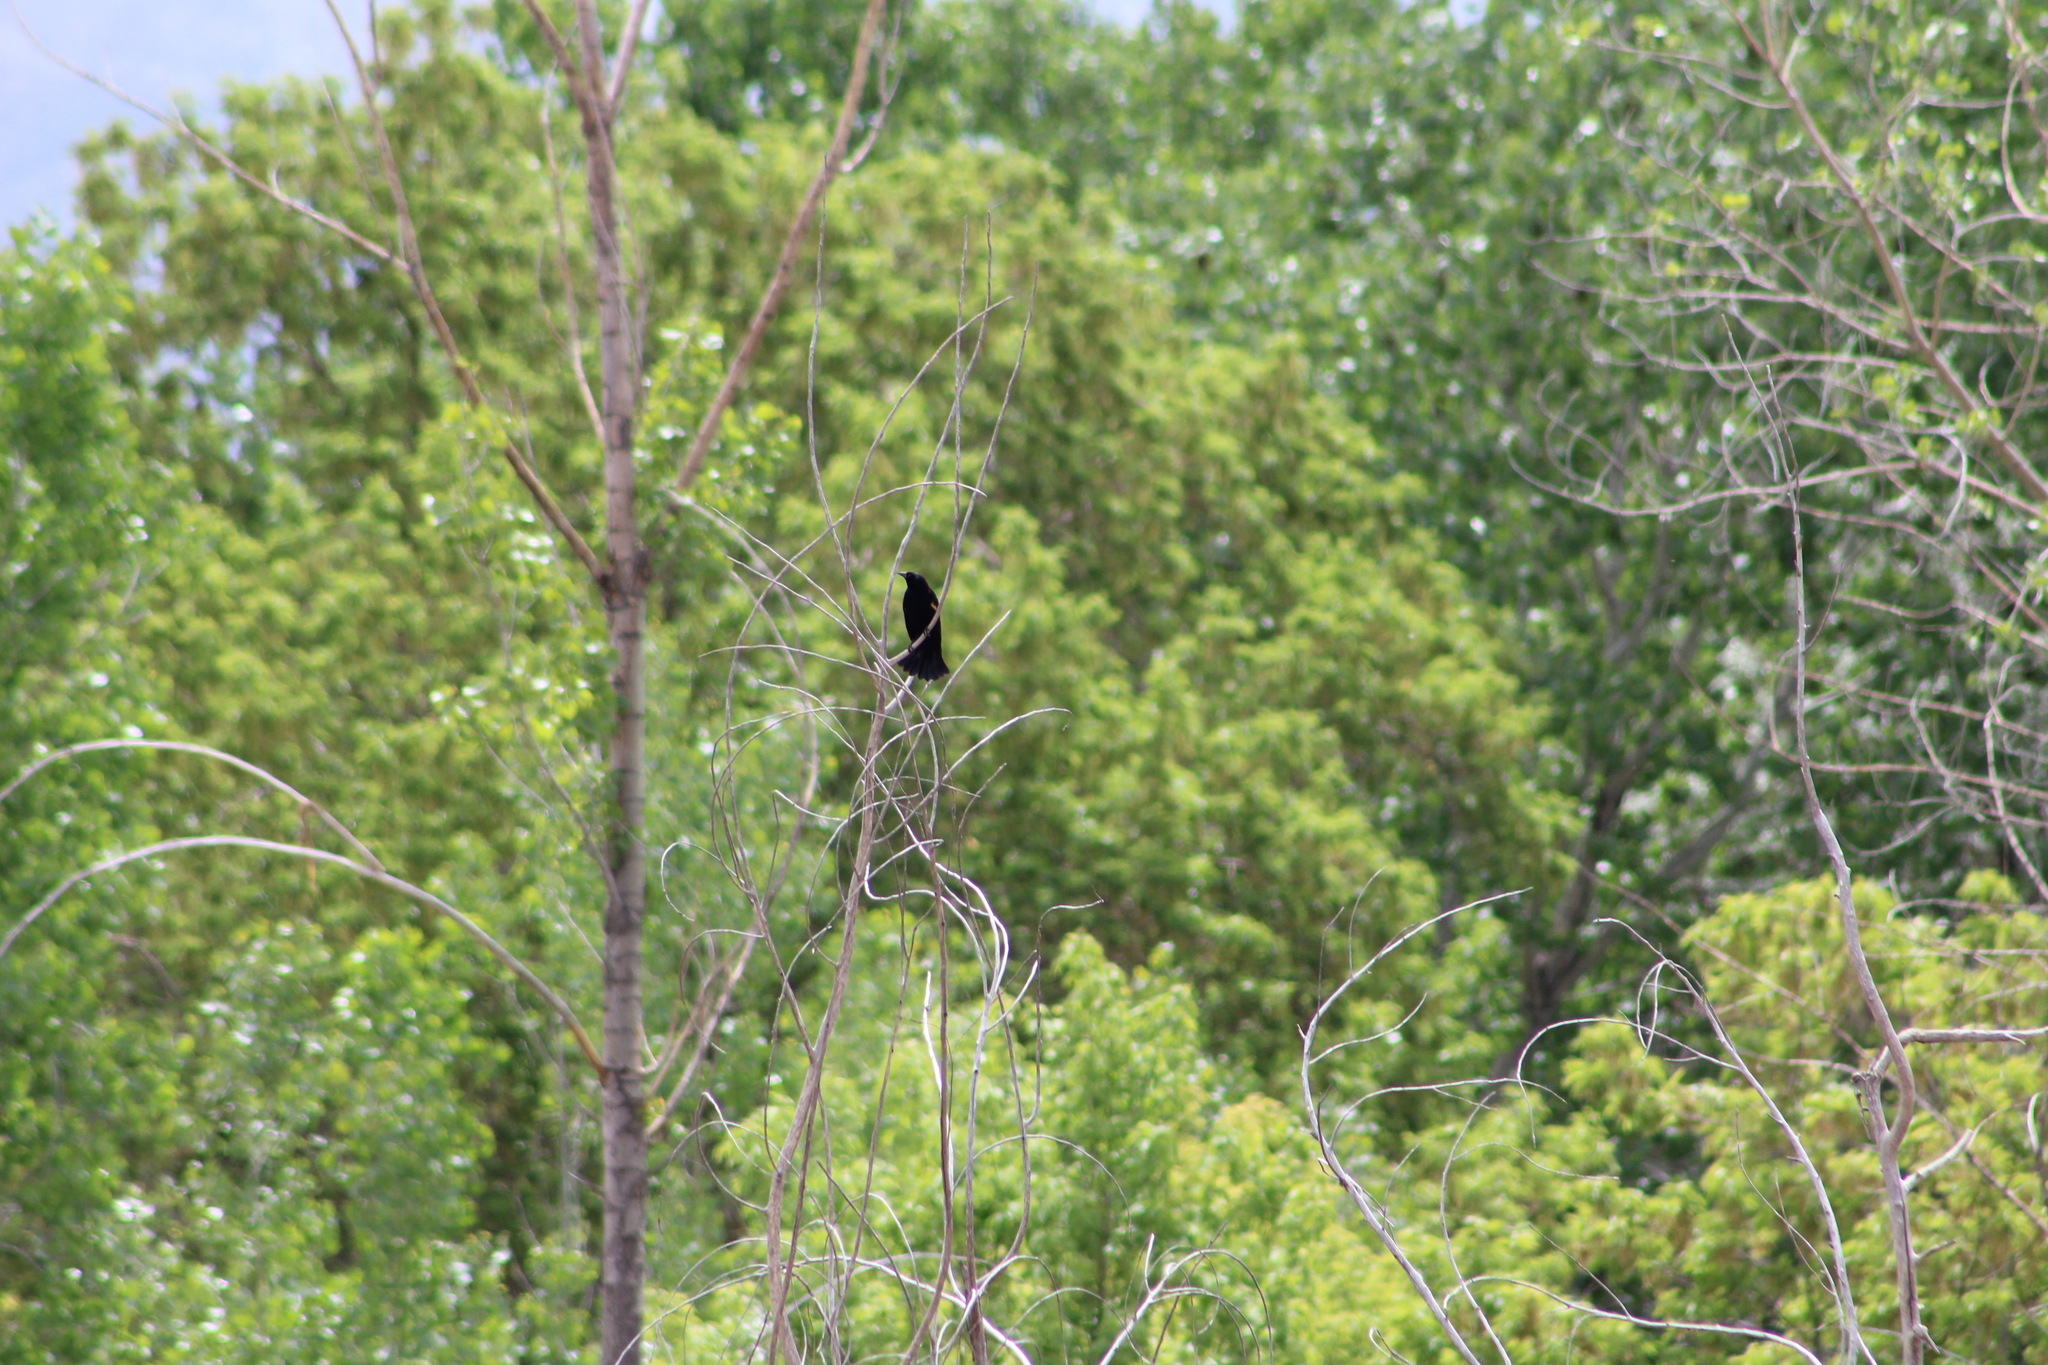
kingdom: Animalia
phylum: Chordata
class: Aves
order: Passeriformes
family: Icteridae
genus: Agelaius
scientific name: Agelaius phoeniceus
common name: Red-winged blackbird
